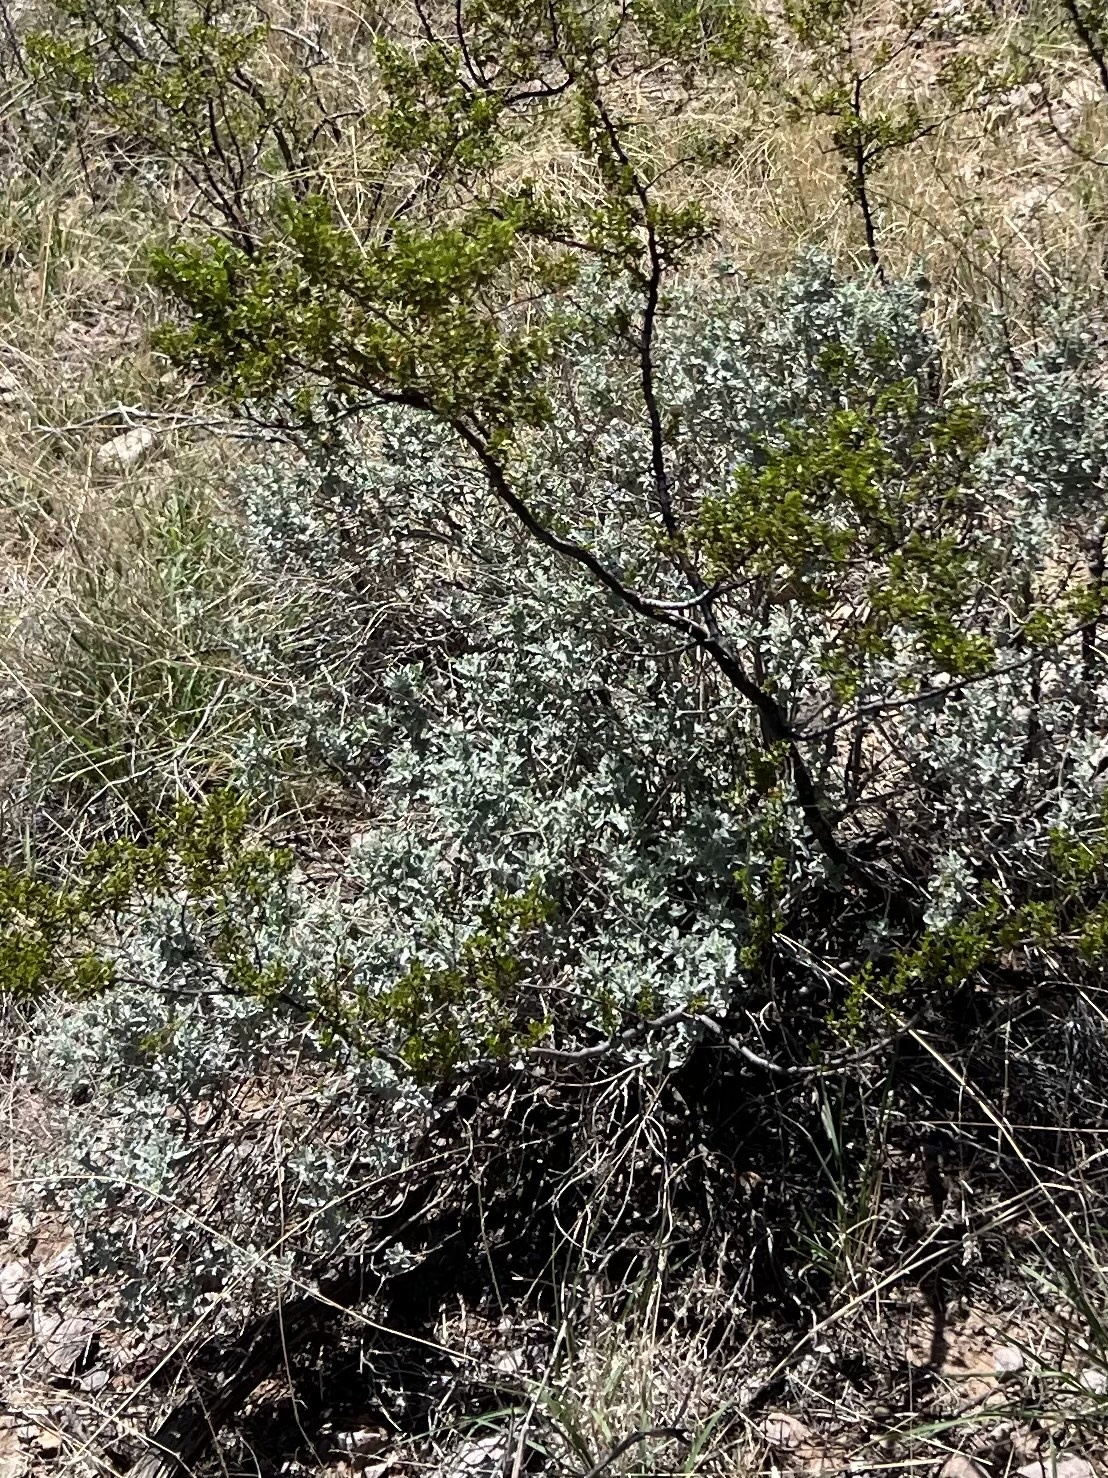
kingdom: Plantae
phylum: Tracheophyta
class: Magnoliopsida
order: Asterales
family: Asteraceae
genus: Parthenium
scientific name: Parthenium incanum
